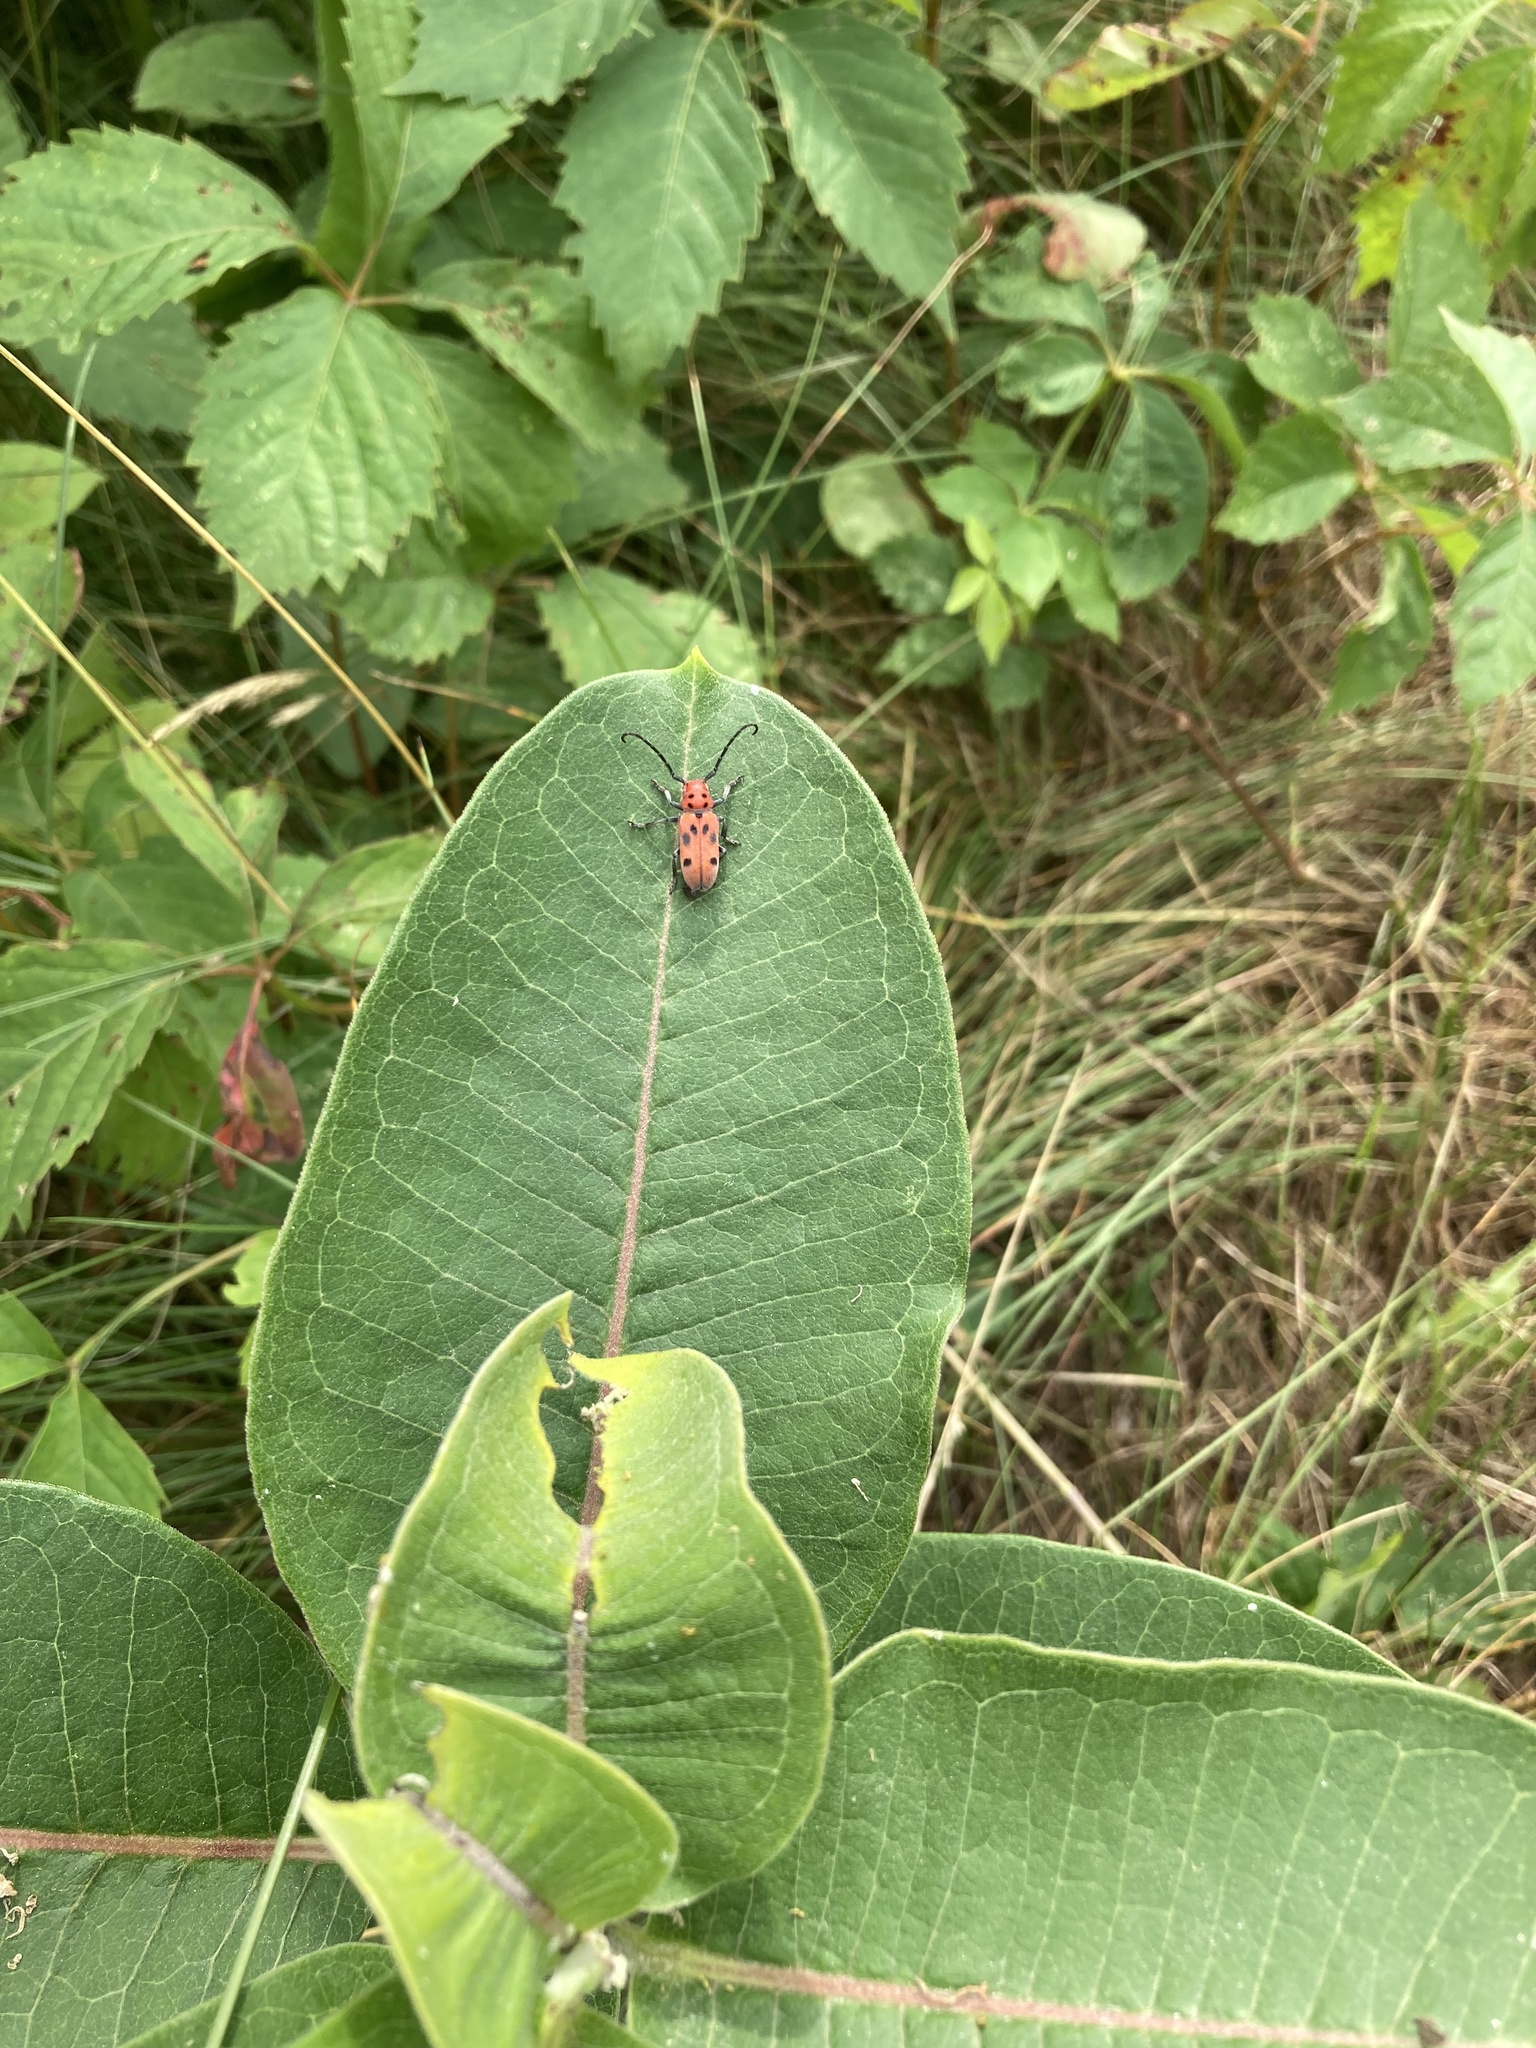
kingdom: Animalia
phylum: Arthropoda
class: Insecta
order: Coleoptera
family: Cerambycidae
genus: Tetraopes
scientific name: Tetraopes tetrophthalmus
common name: Red milkweed beetle
